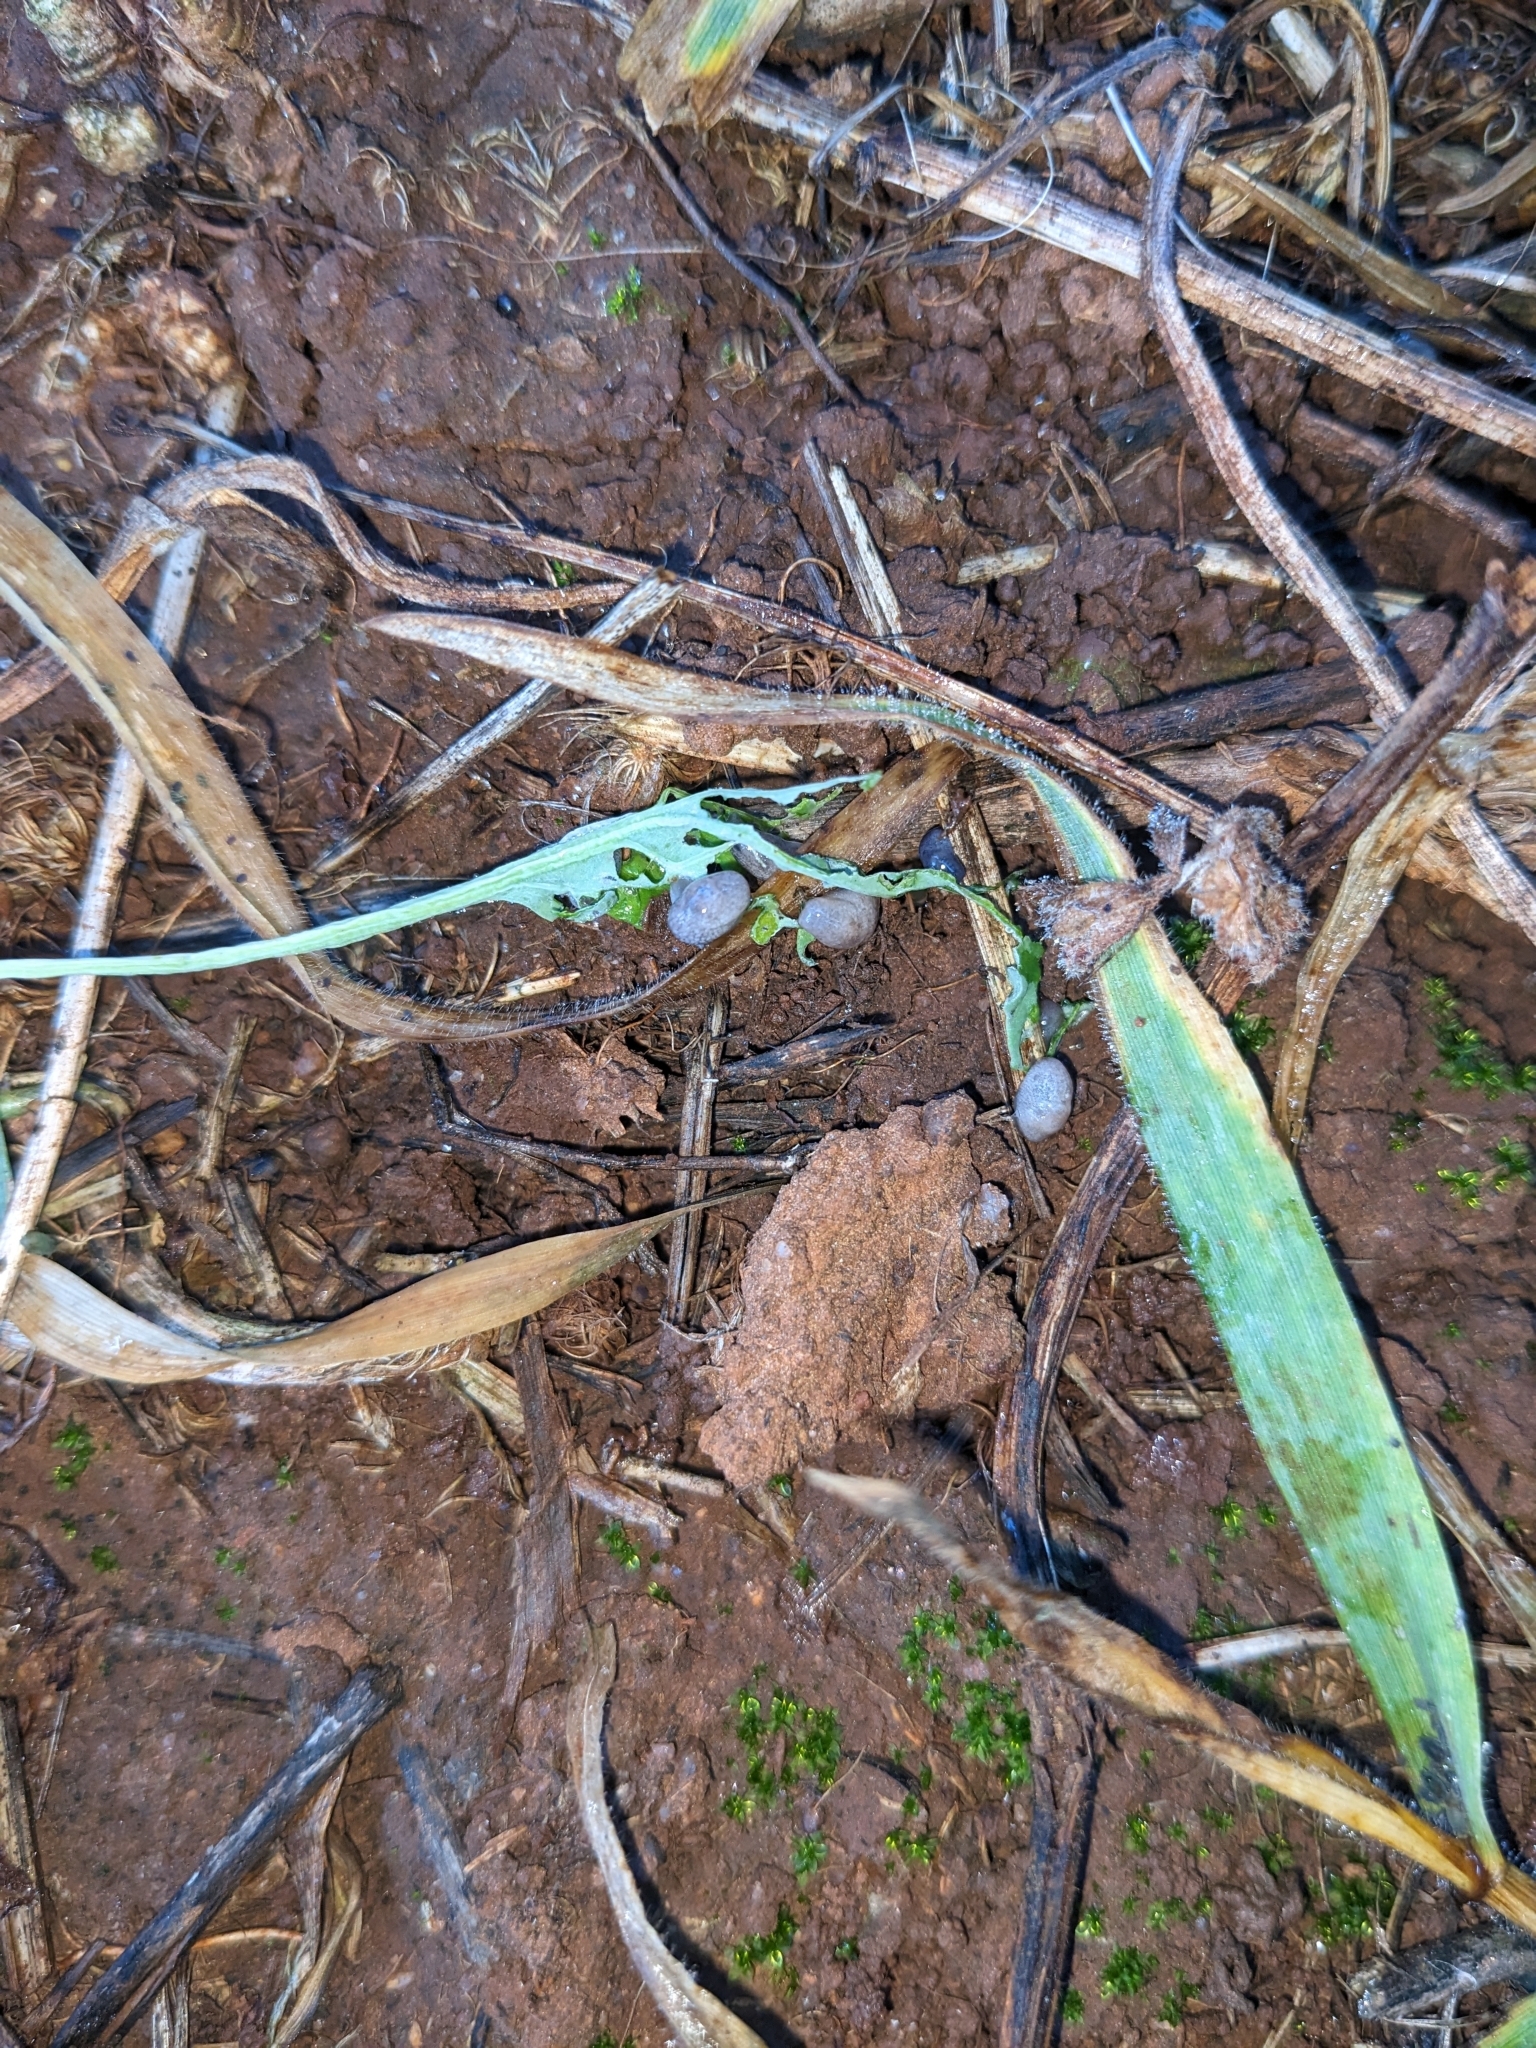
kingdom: Animalia
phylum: Mollusca
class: Gastropoda
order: Stylommatophora
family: Agriolimacidae
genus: Deroceras
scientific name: Deroceras reticulatum
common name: Gray field slug
